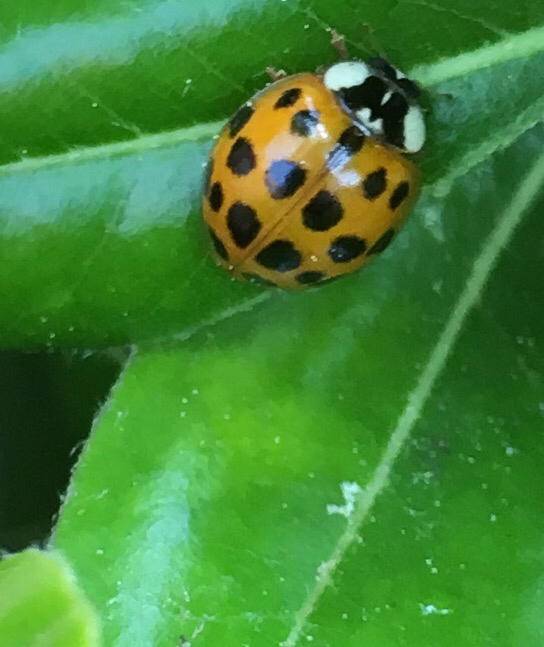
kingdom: Animalia
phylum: Arthropoda
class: Insecta
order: Coleoptera
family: Coccinellidae
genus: Harmonia
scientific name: Harmonia axyridis
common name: Harlequin ladybird
